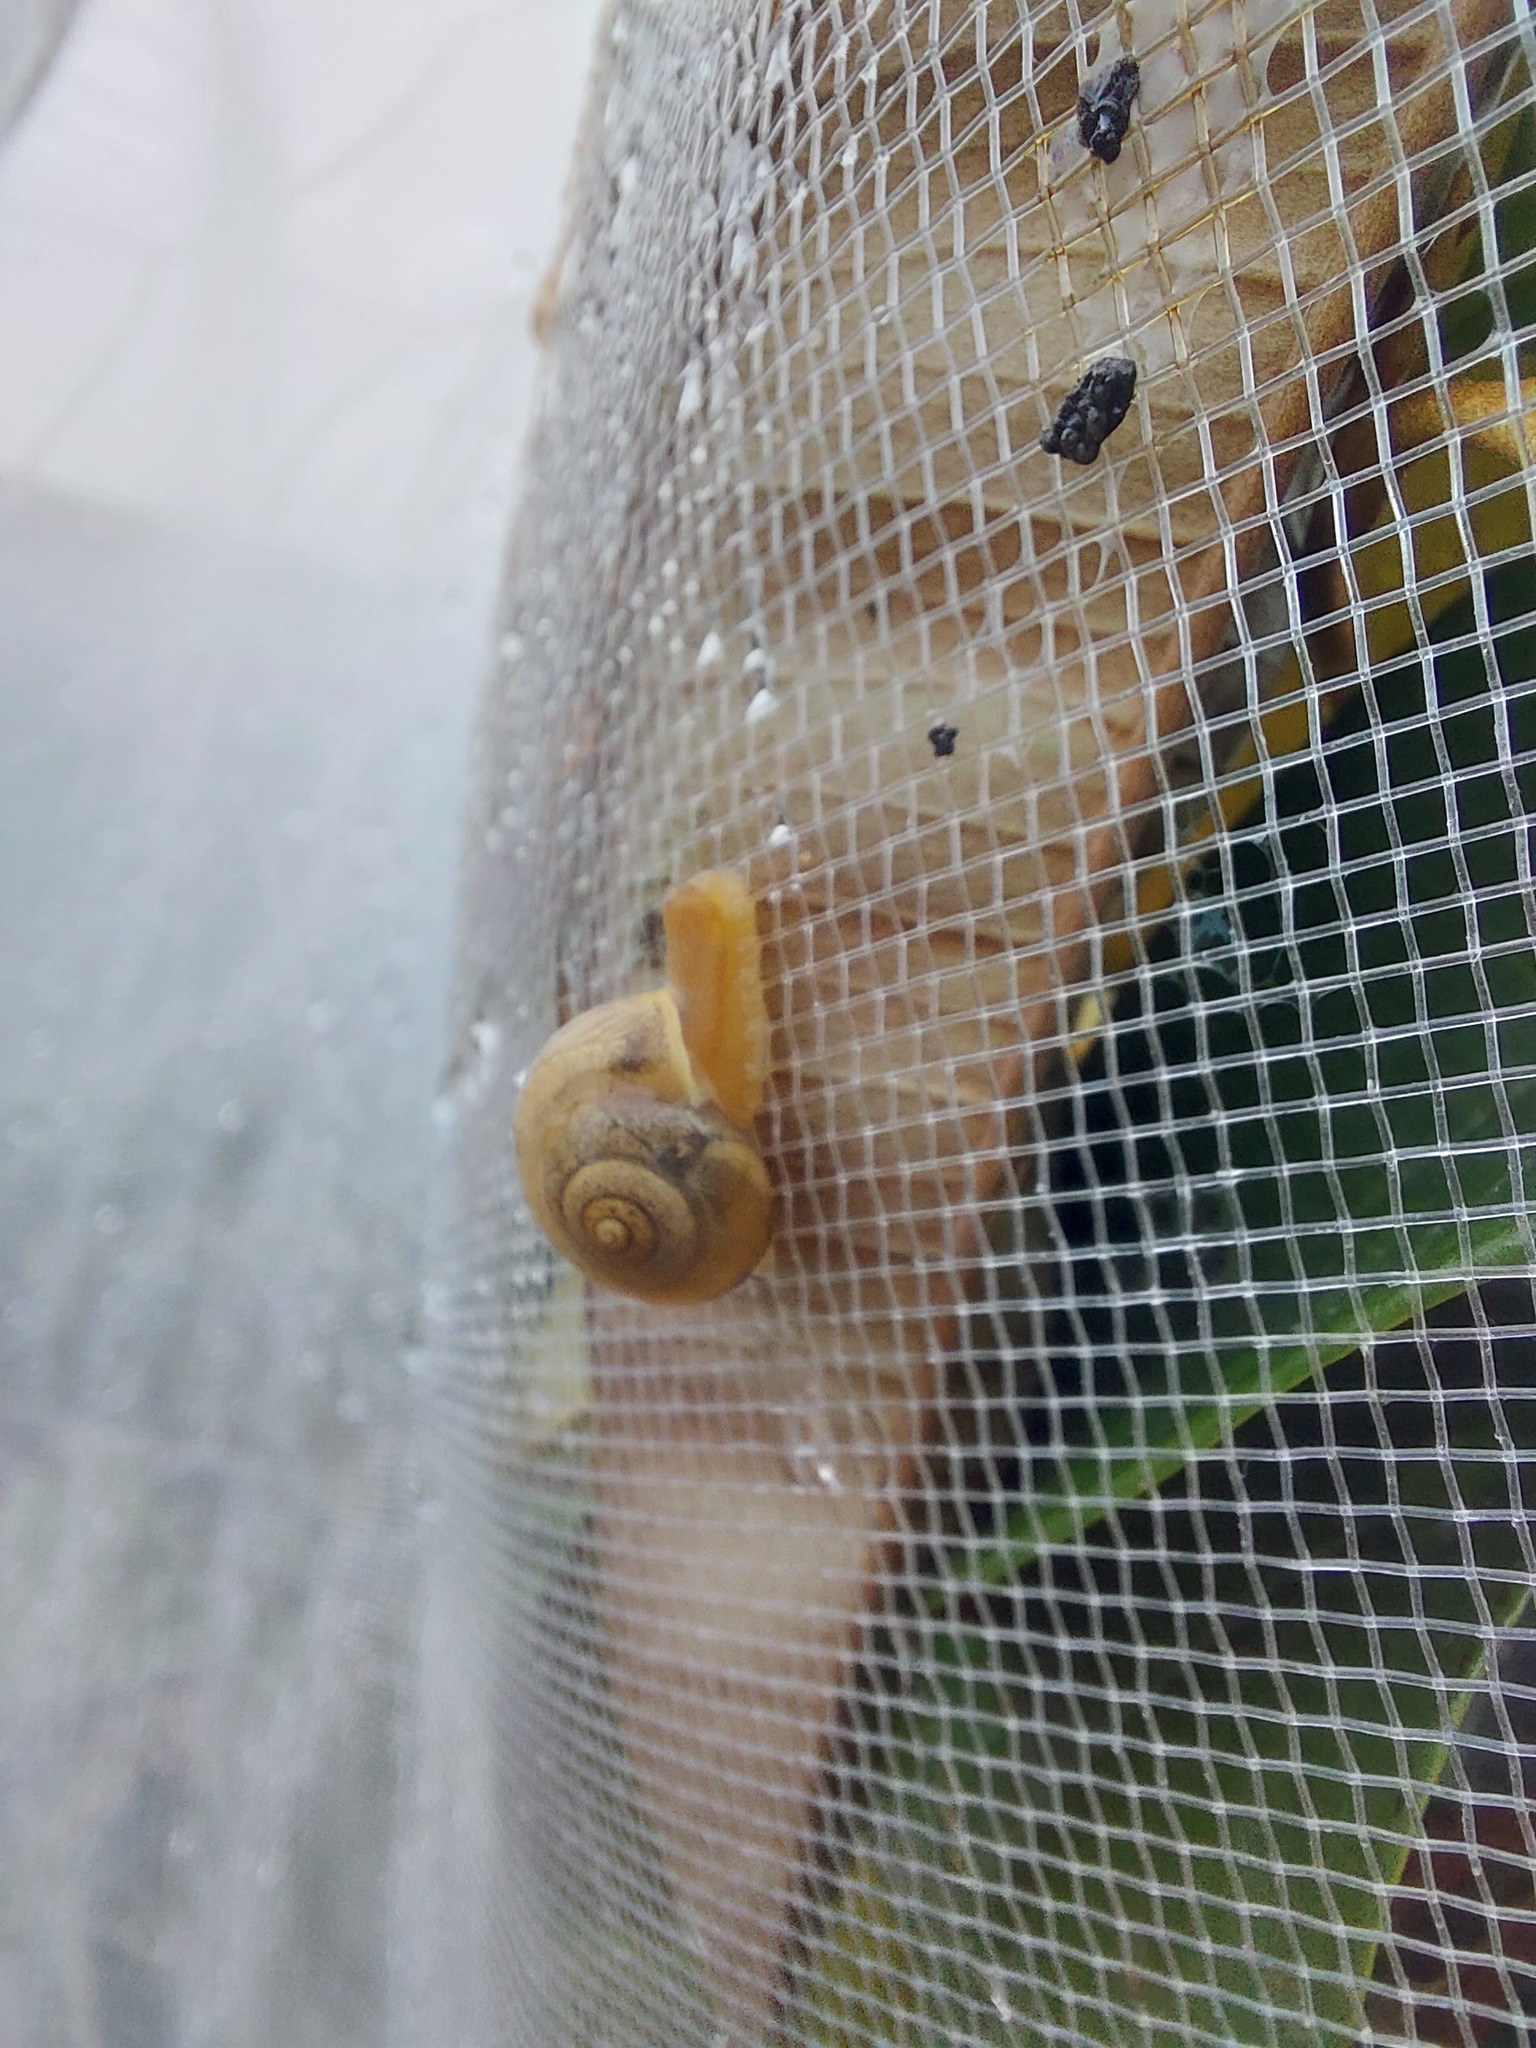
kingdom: Animalia
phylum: Mollusca
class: Gastropoda
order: Stylommatophora
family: Camaenidae
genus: Bradybaena
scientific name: Bradybaena similaris
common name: Asian trampsnail
